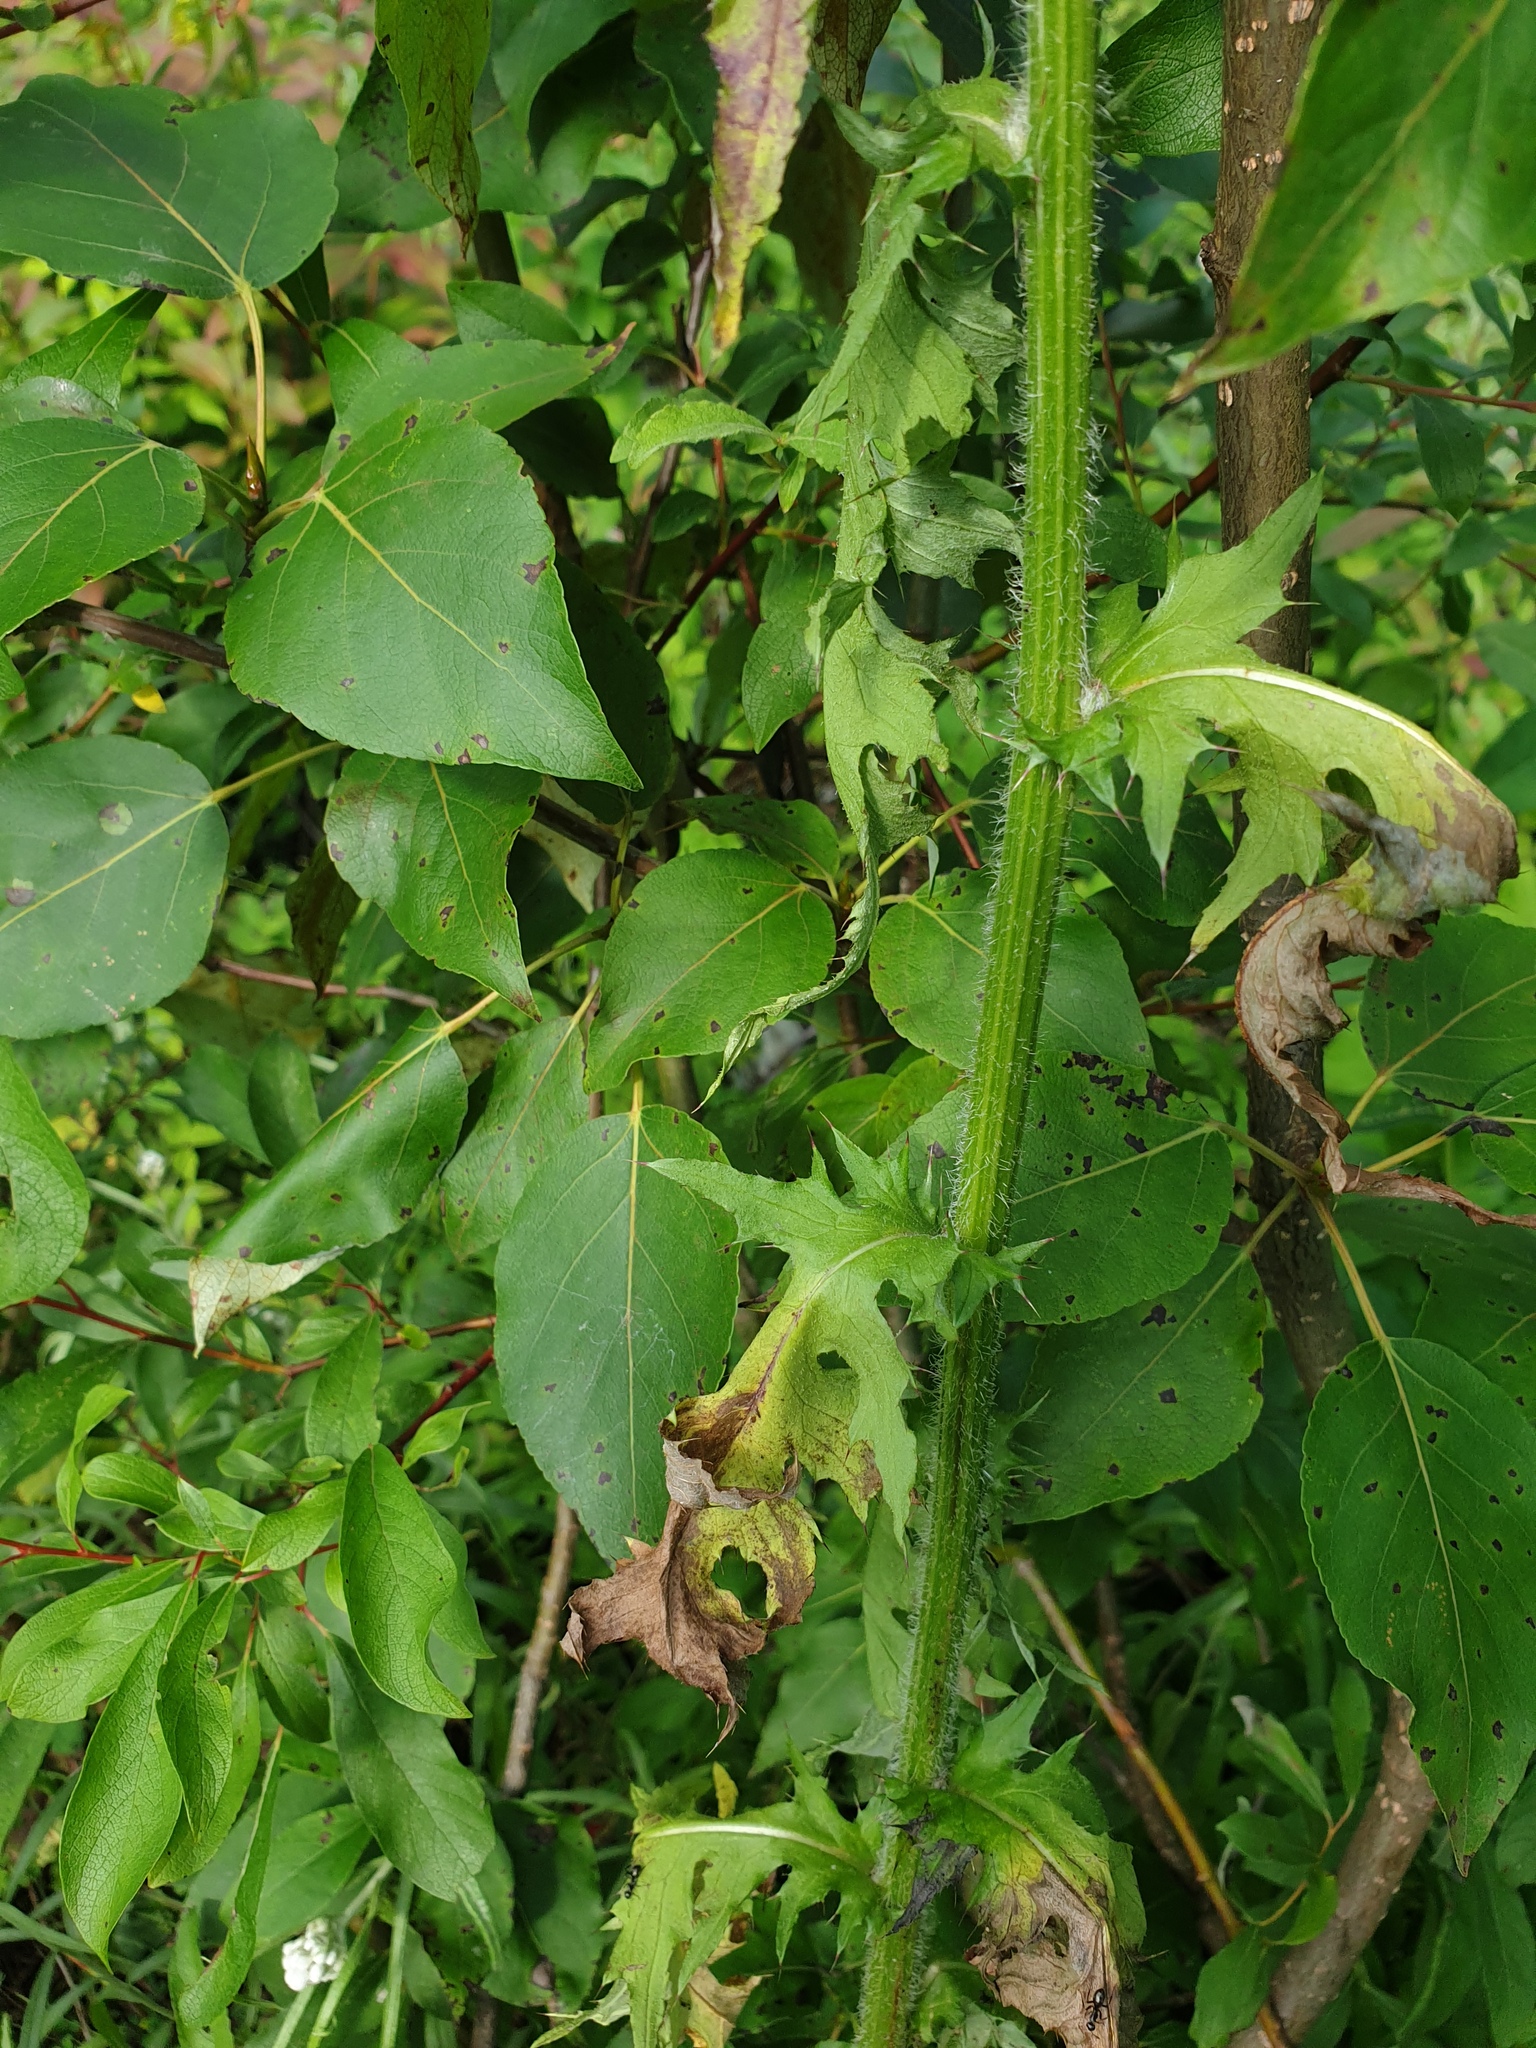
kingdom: Plantae
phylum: Tracheophyta
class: Magnoliopsida
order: Asterales
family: Asteraceae
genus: Cirsium
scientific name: Cirsium muticum
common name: Dunce-nettle
